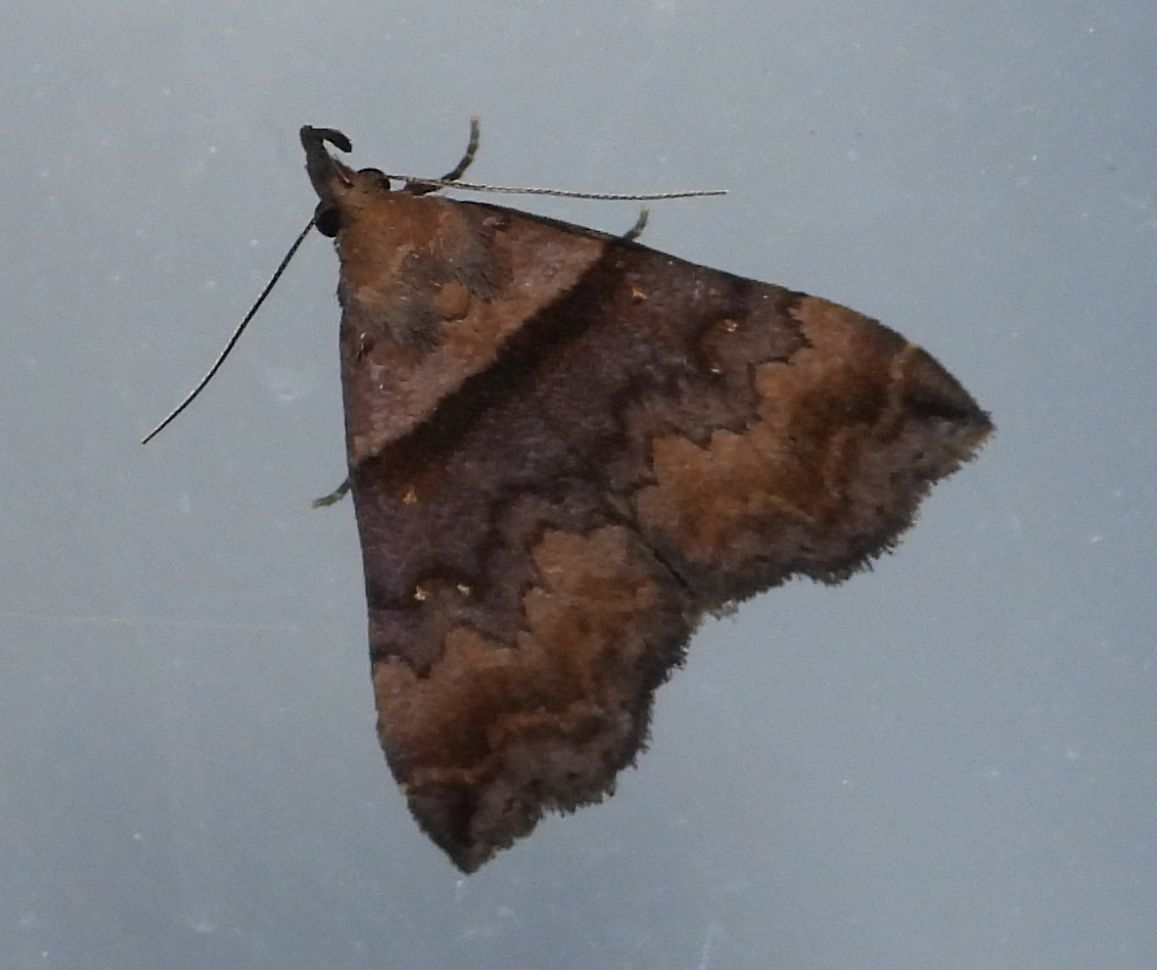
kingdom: Animalia
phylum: Arthropoda
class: Insecta
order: Lepidoptera
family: Erebidae
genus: Lascoria
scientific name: Lascoria ambigualis
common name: Ambiguous moth
